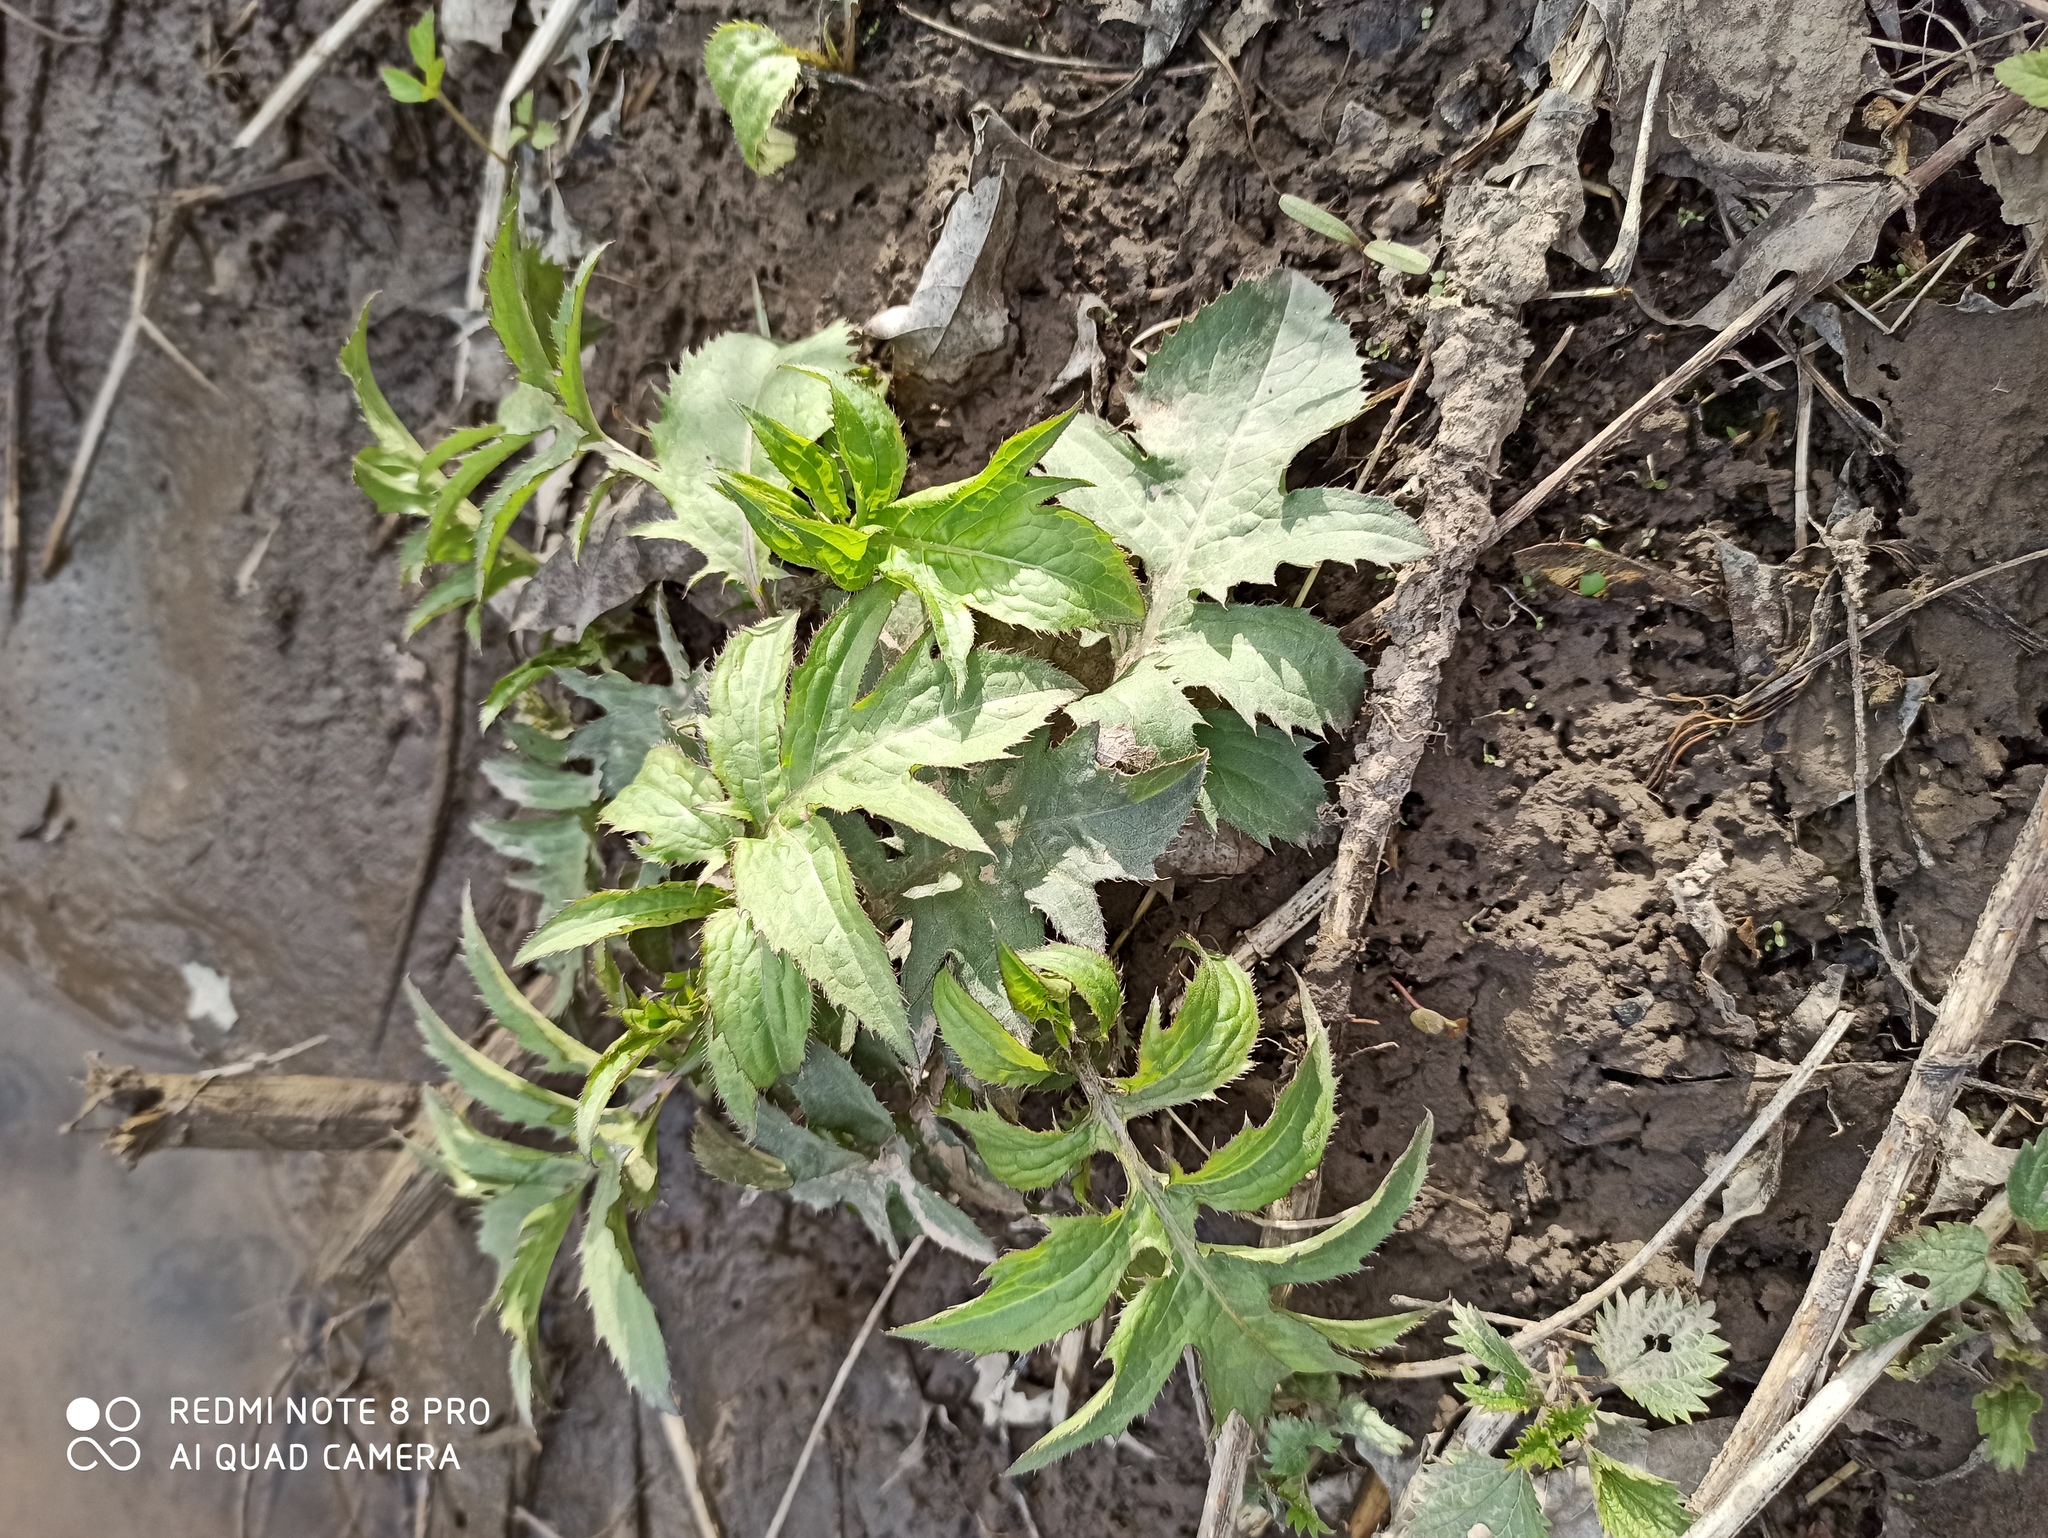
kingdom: Plantae
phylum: Tracheophyta
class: Magnoliopsida
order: Asterales
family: Asteraceae
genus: Cirsium
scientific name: Cirsium oleraceum
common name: Cabbage thistle
